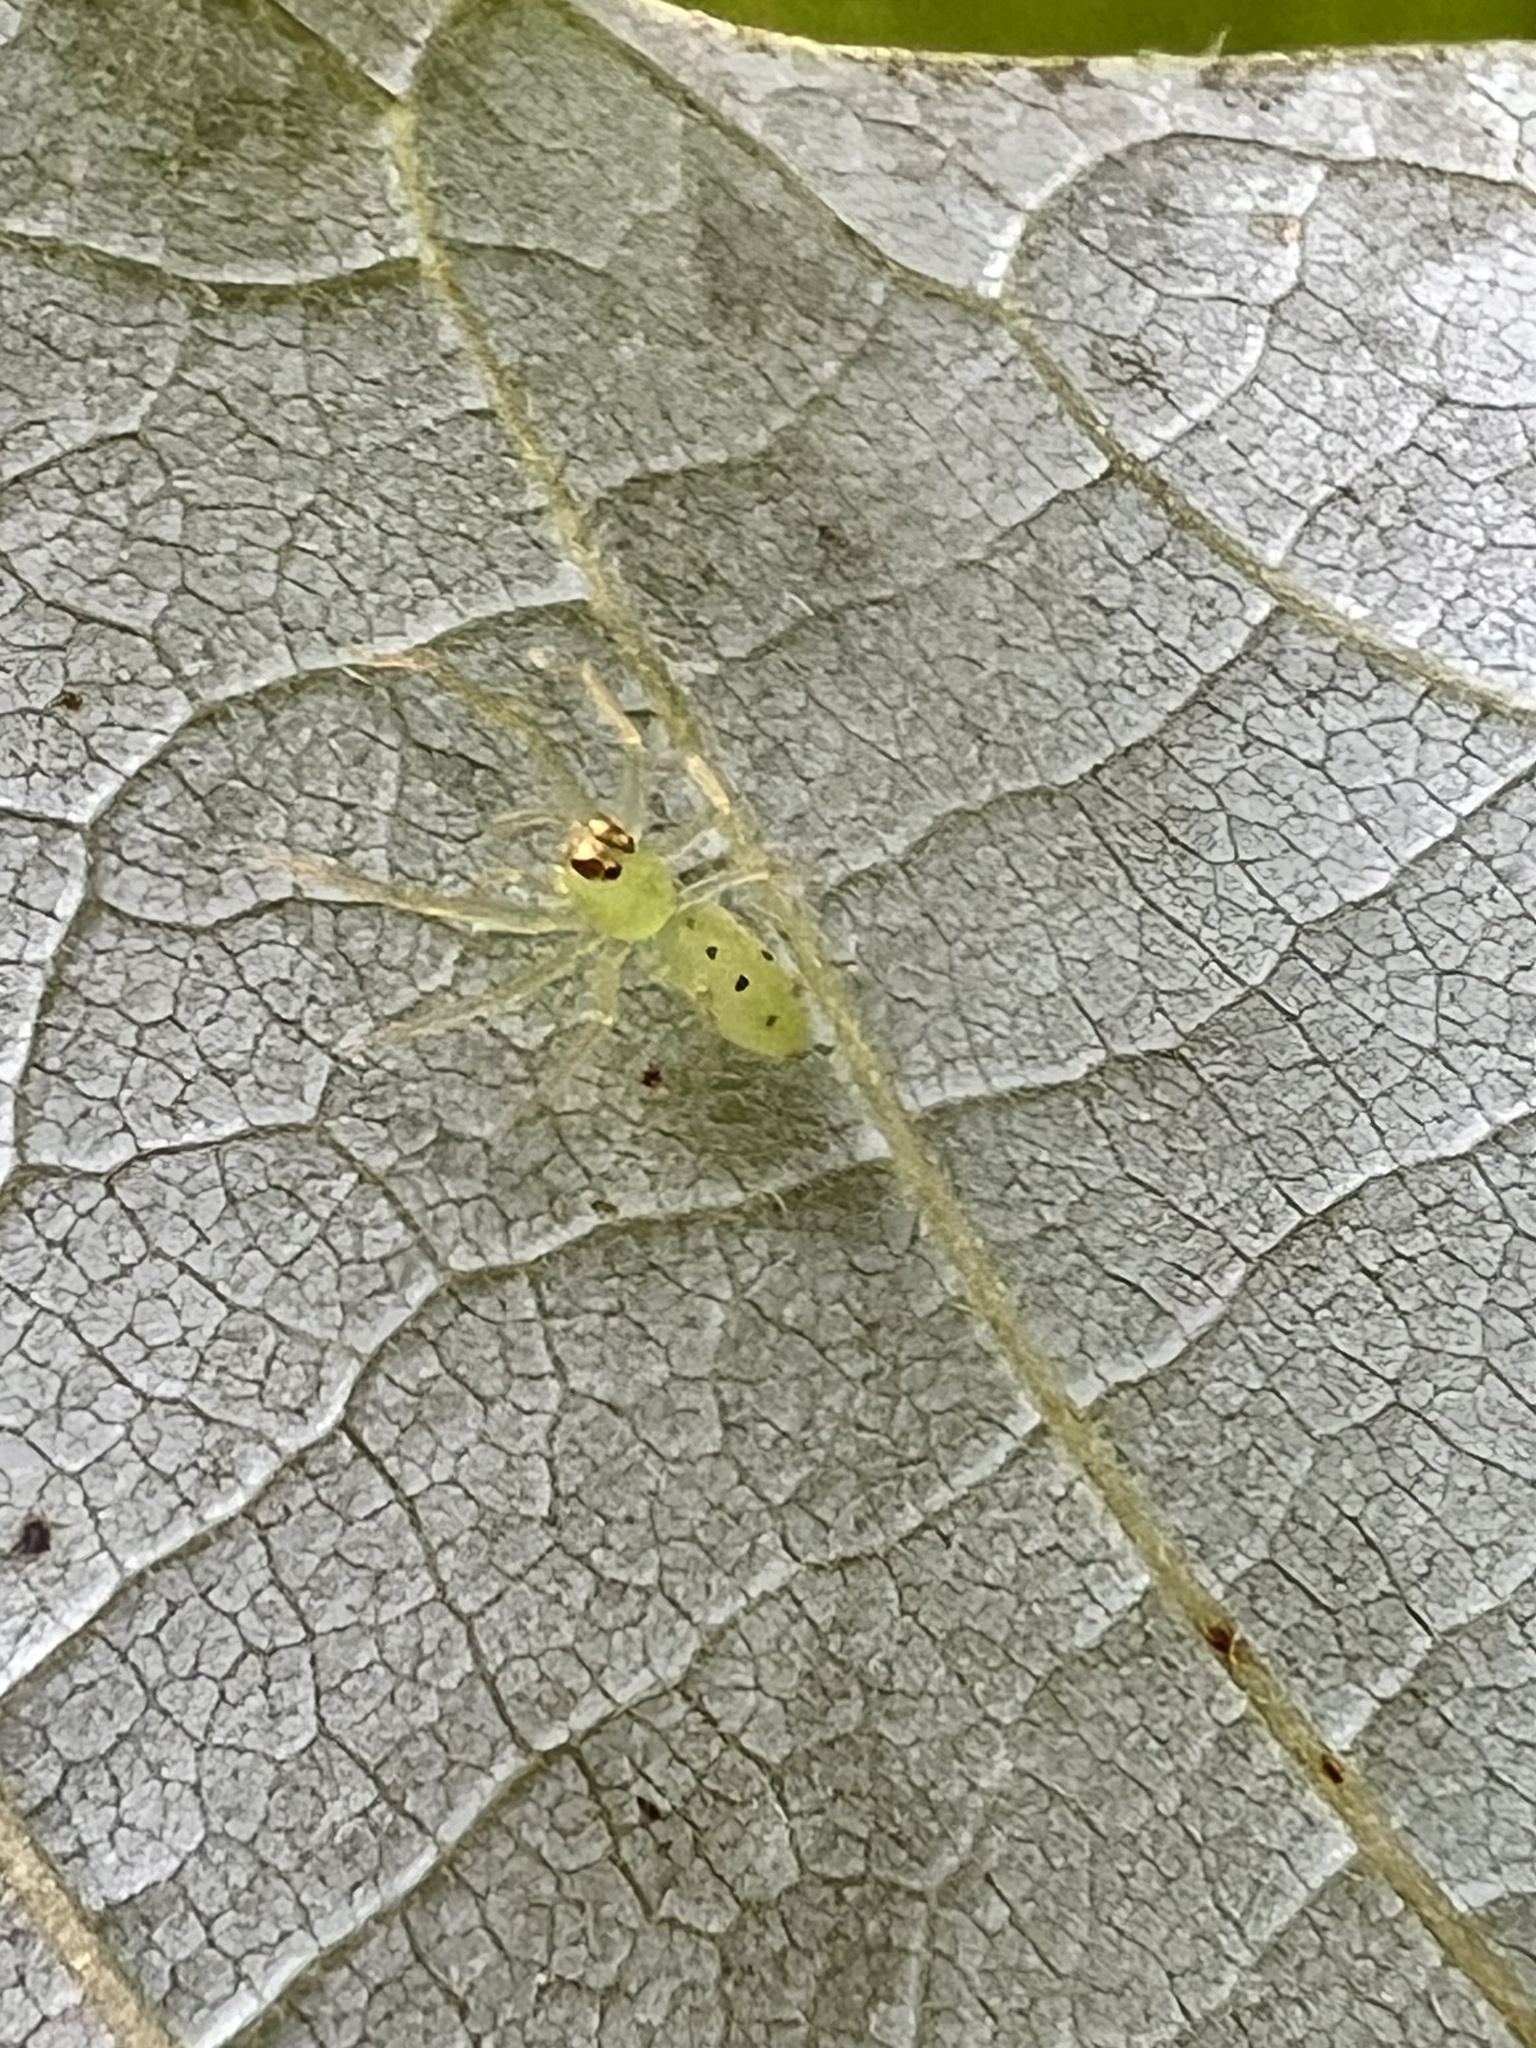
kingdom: Animalia
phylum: Arthropoda
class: Arachnida
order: Araneae
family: Salticidae
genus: Lyssomanes
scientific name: Lyssomanes viridis
